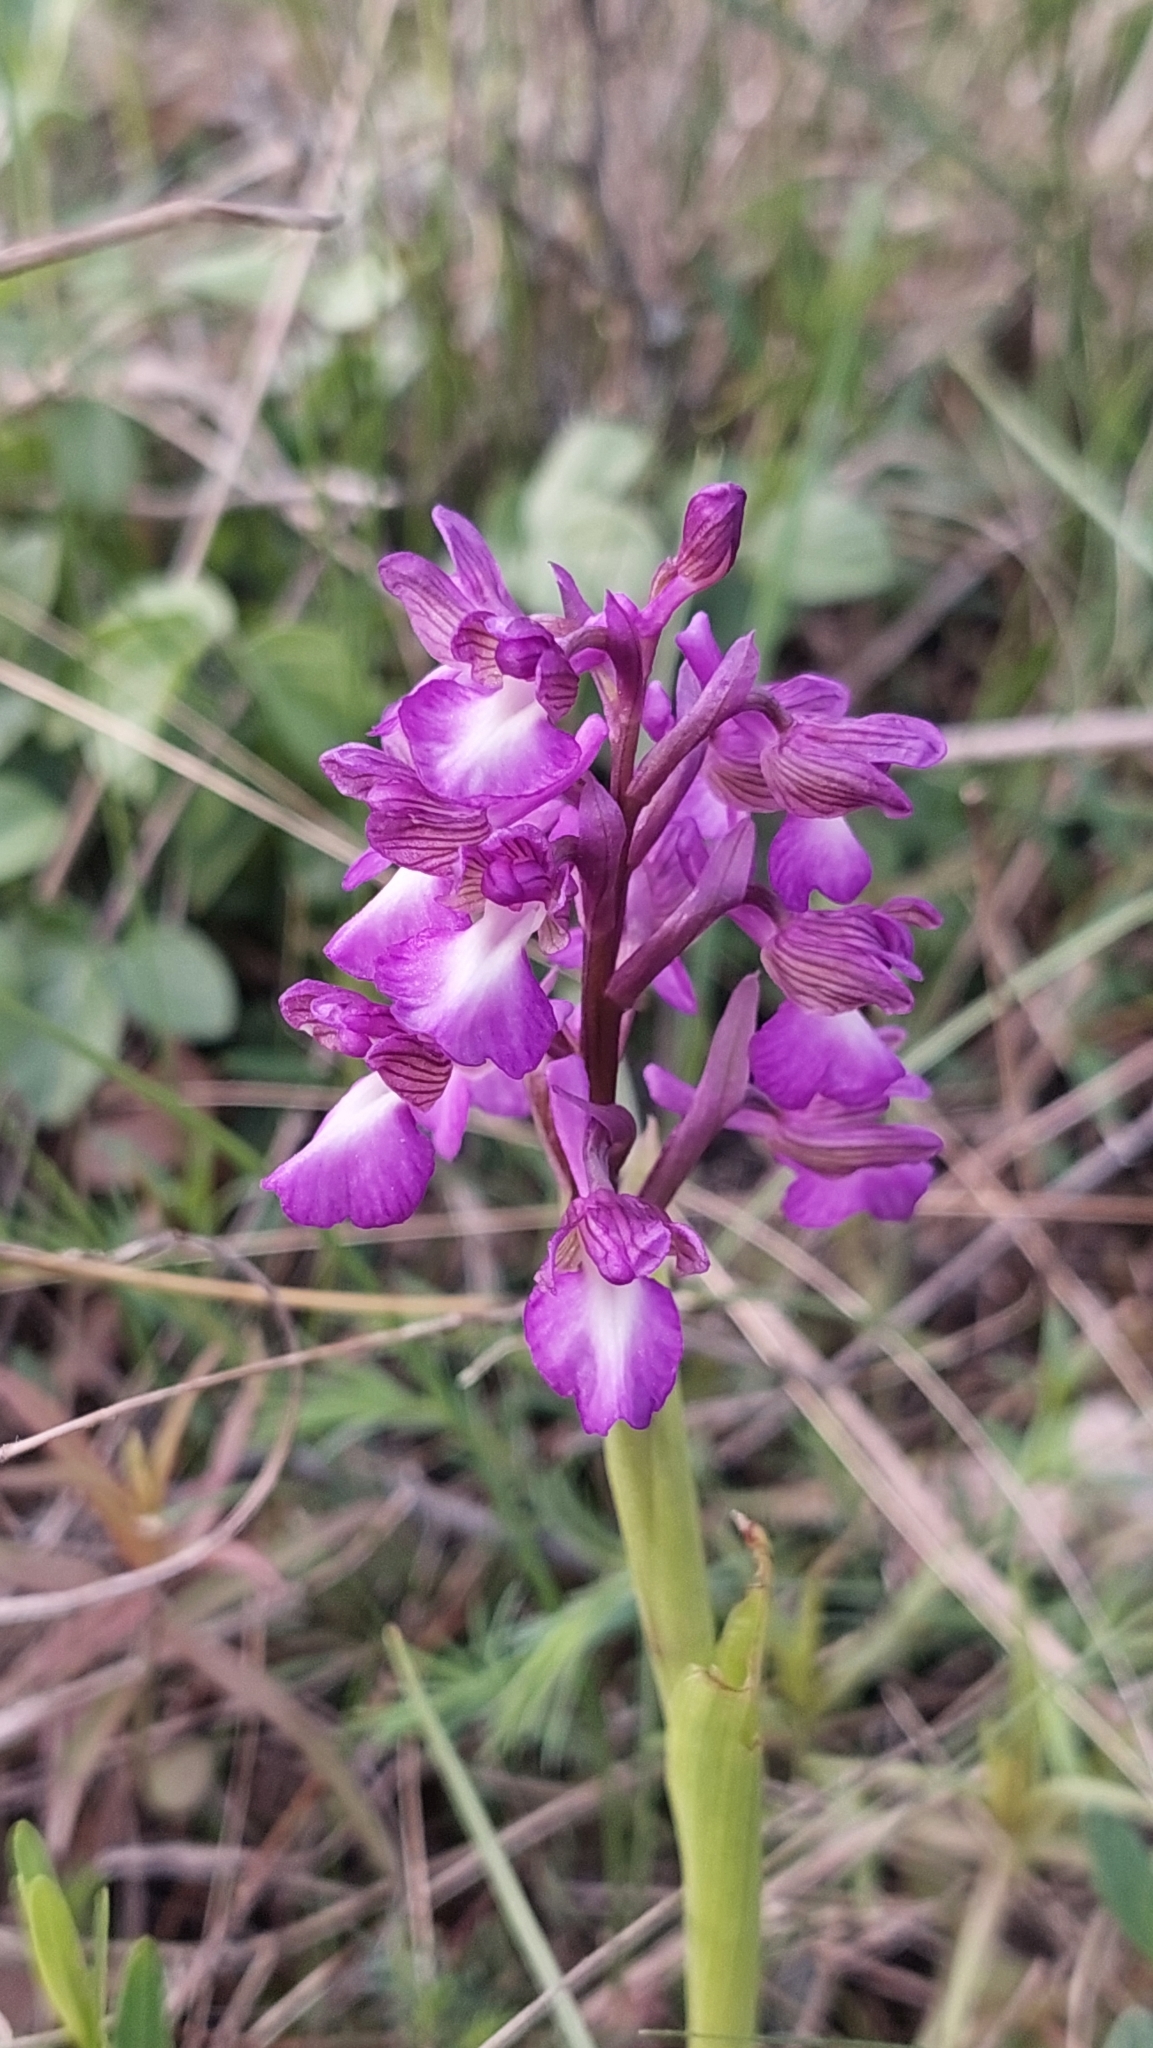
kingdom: Plantae
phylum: Tracheophyta
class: Liliopsida
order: Asparagales
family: Orchidaceae
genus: Anacamptis
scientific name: Anacamptis morio
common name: Green-winged orchid
